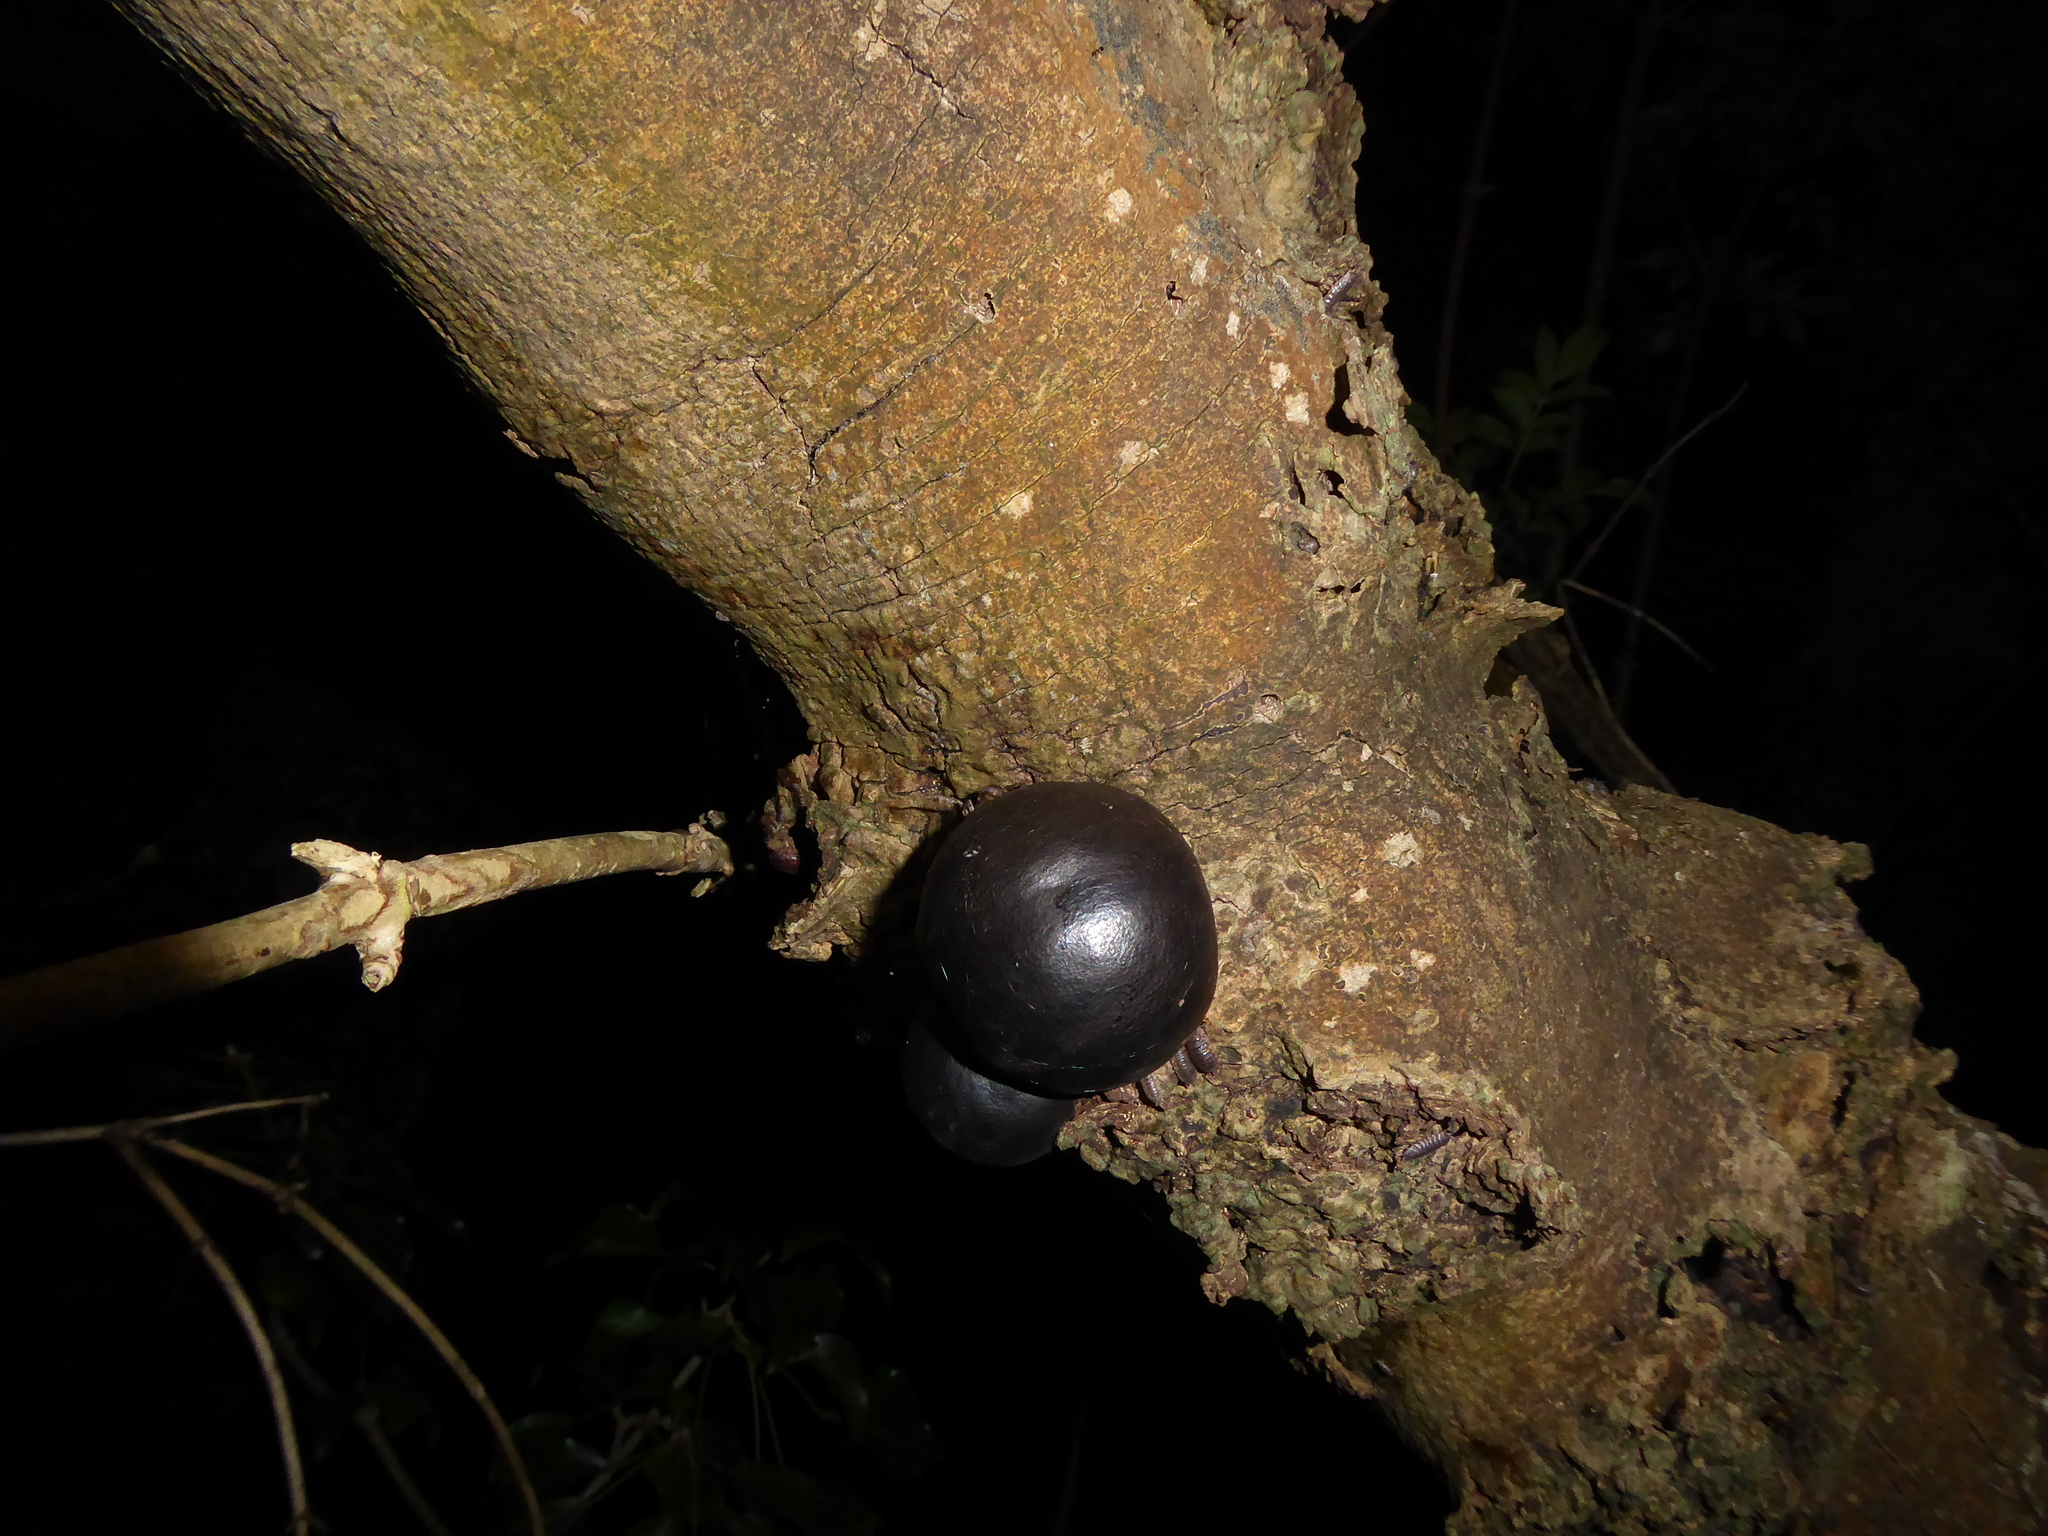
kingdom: Fungi
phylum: Ascomycota
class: Sordariomycetes
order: Xylariales
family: Hypoxylaceae
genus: Daldinia
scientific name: Daldinia concentrica
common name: Cramp balls
